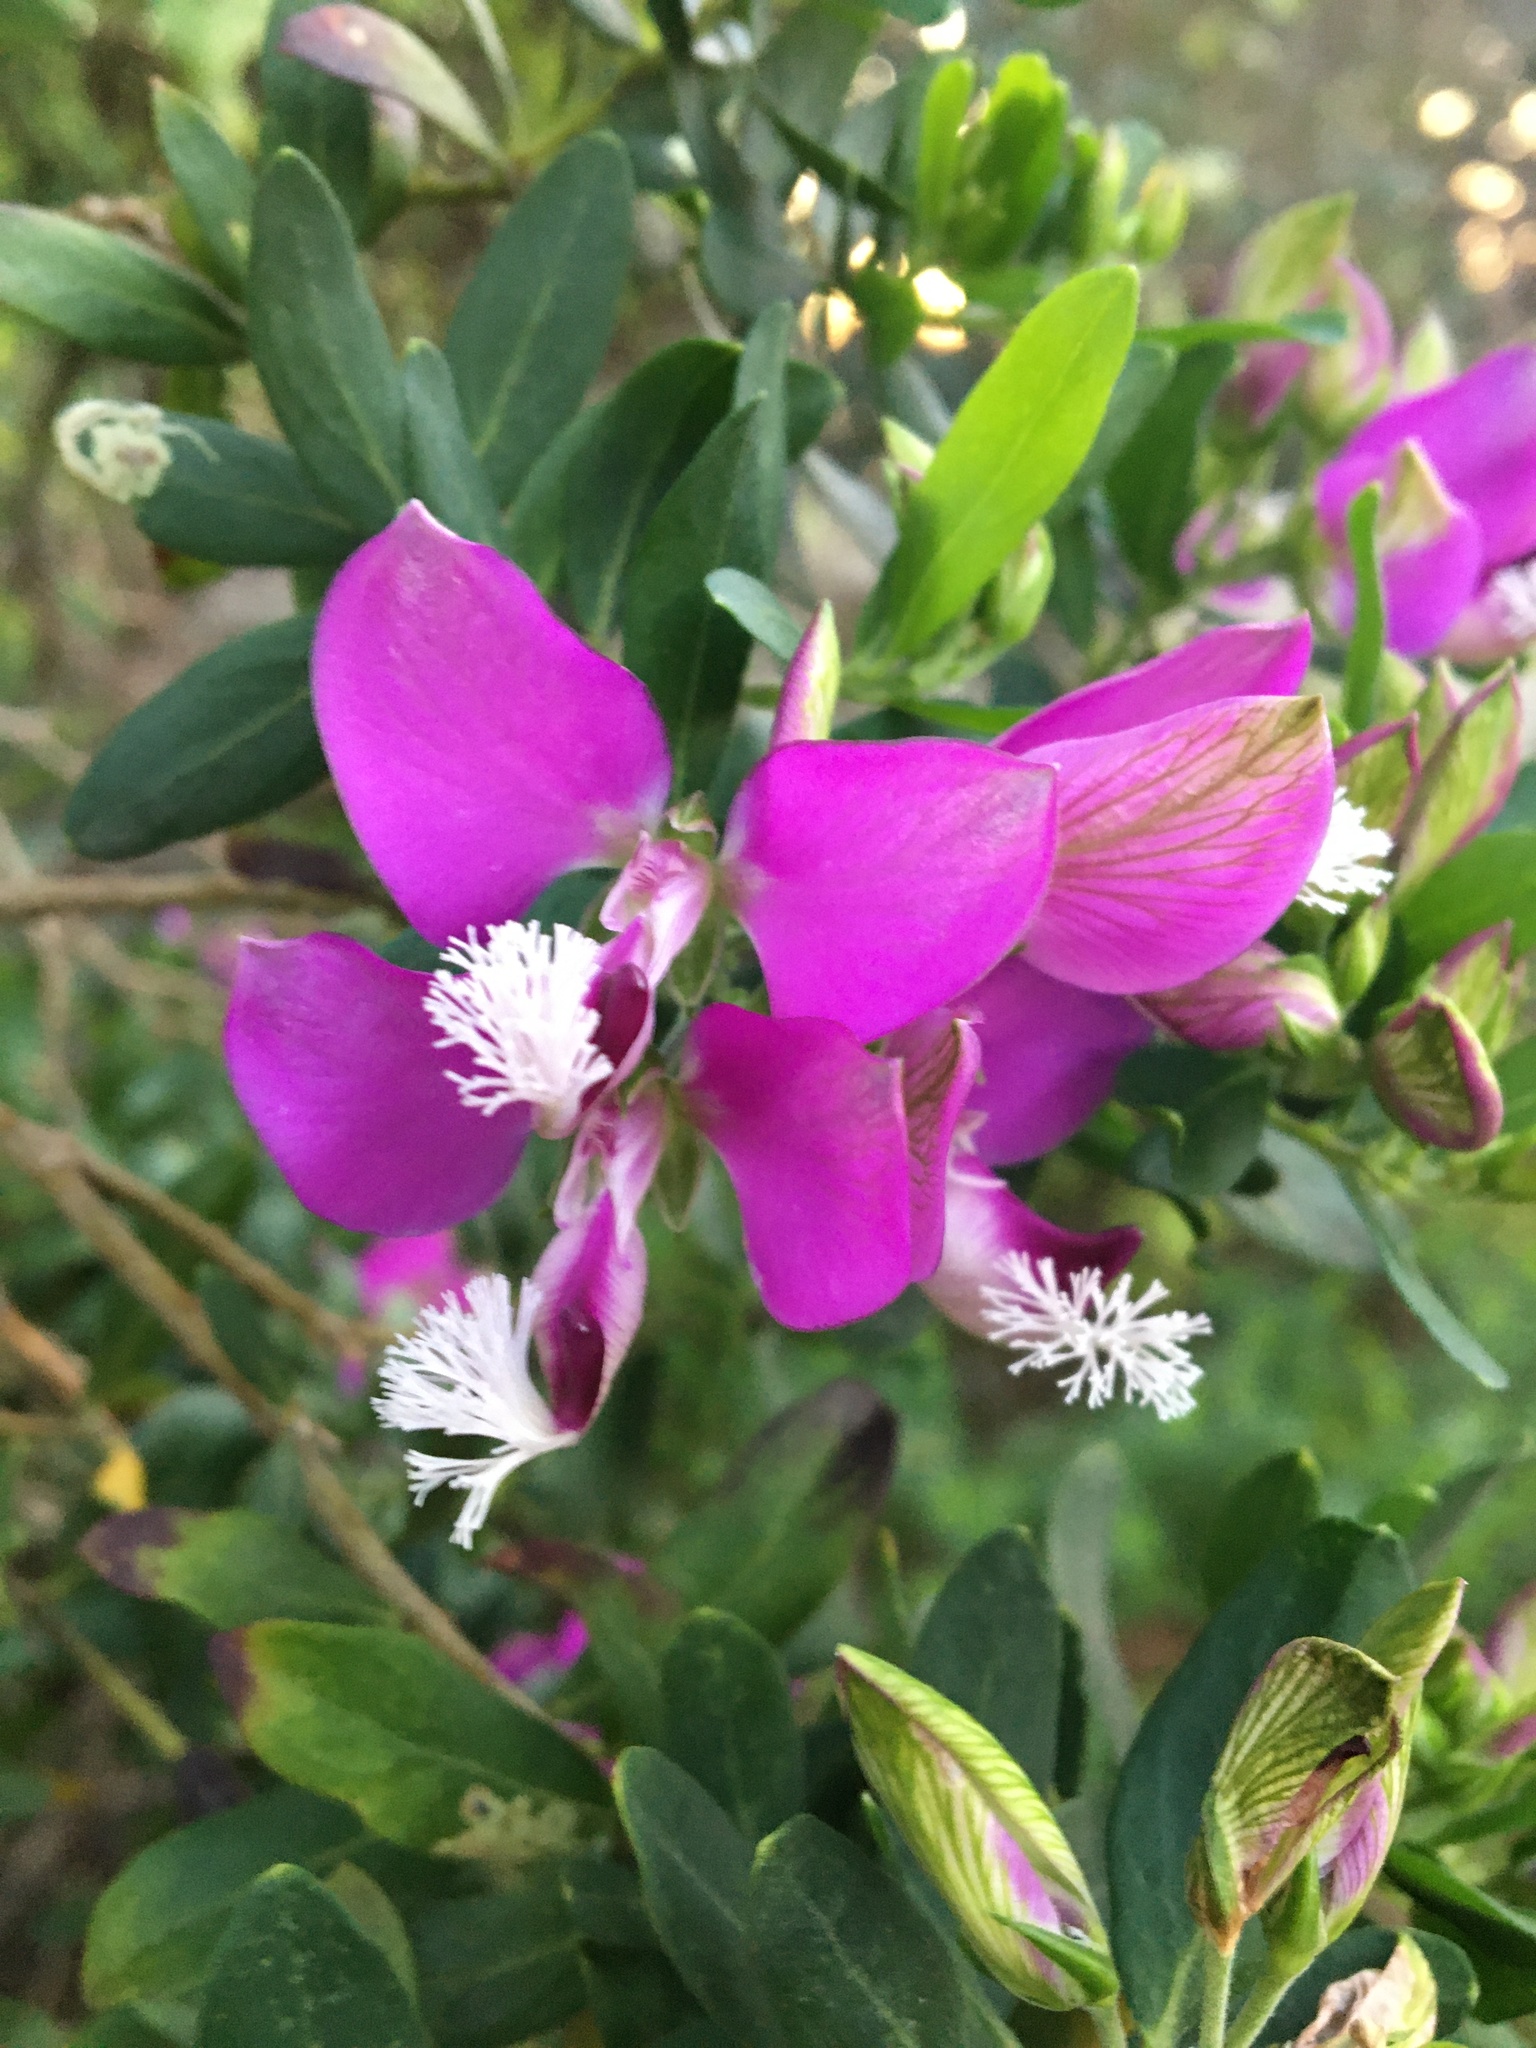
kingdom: Plantae
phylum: Tracheophyta
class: Magnoliopsida
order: Fabales
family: Polygalaceae
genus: Polygala
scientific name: Polygala myrtifolia
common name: Myrtle-leaf milkwort
